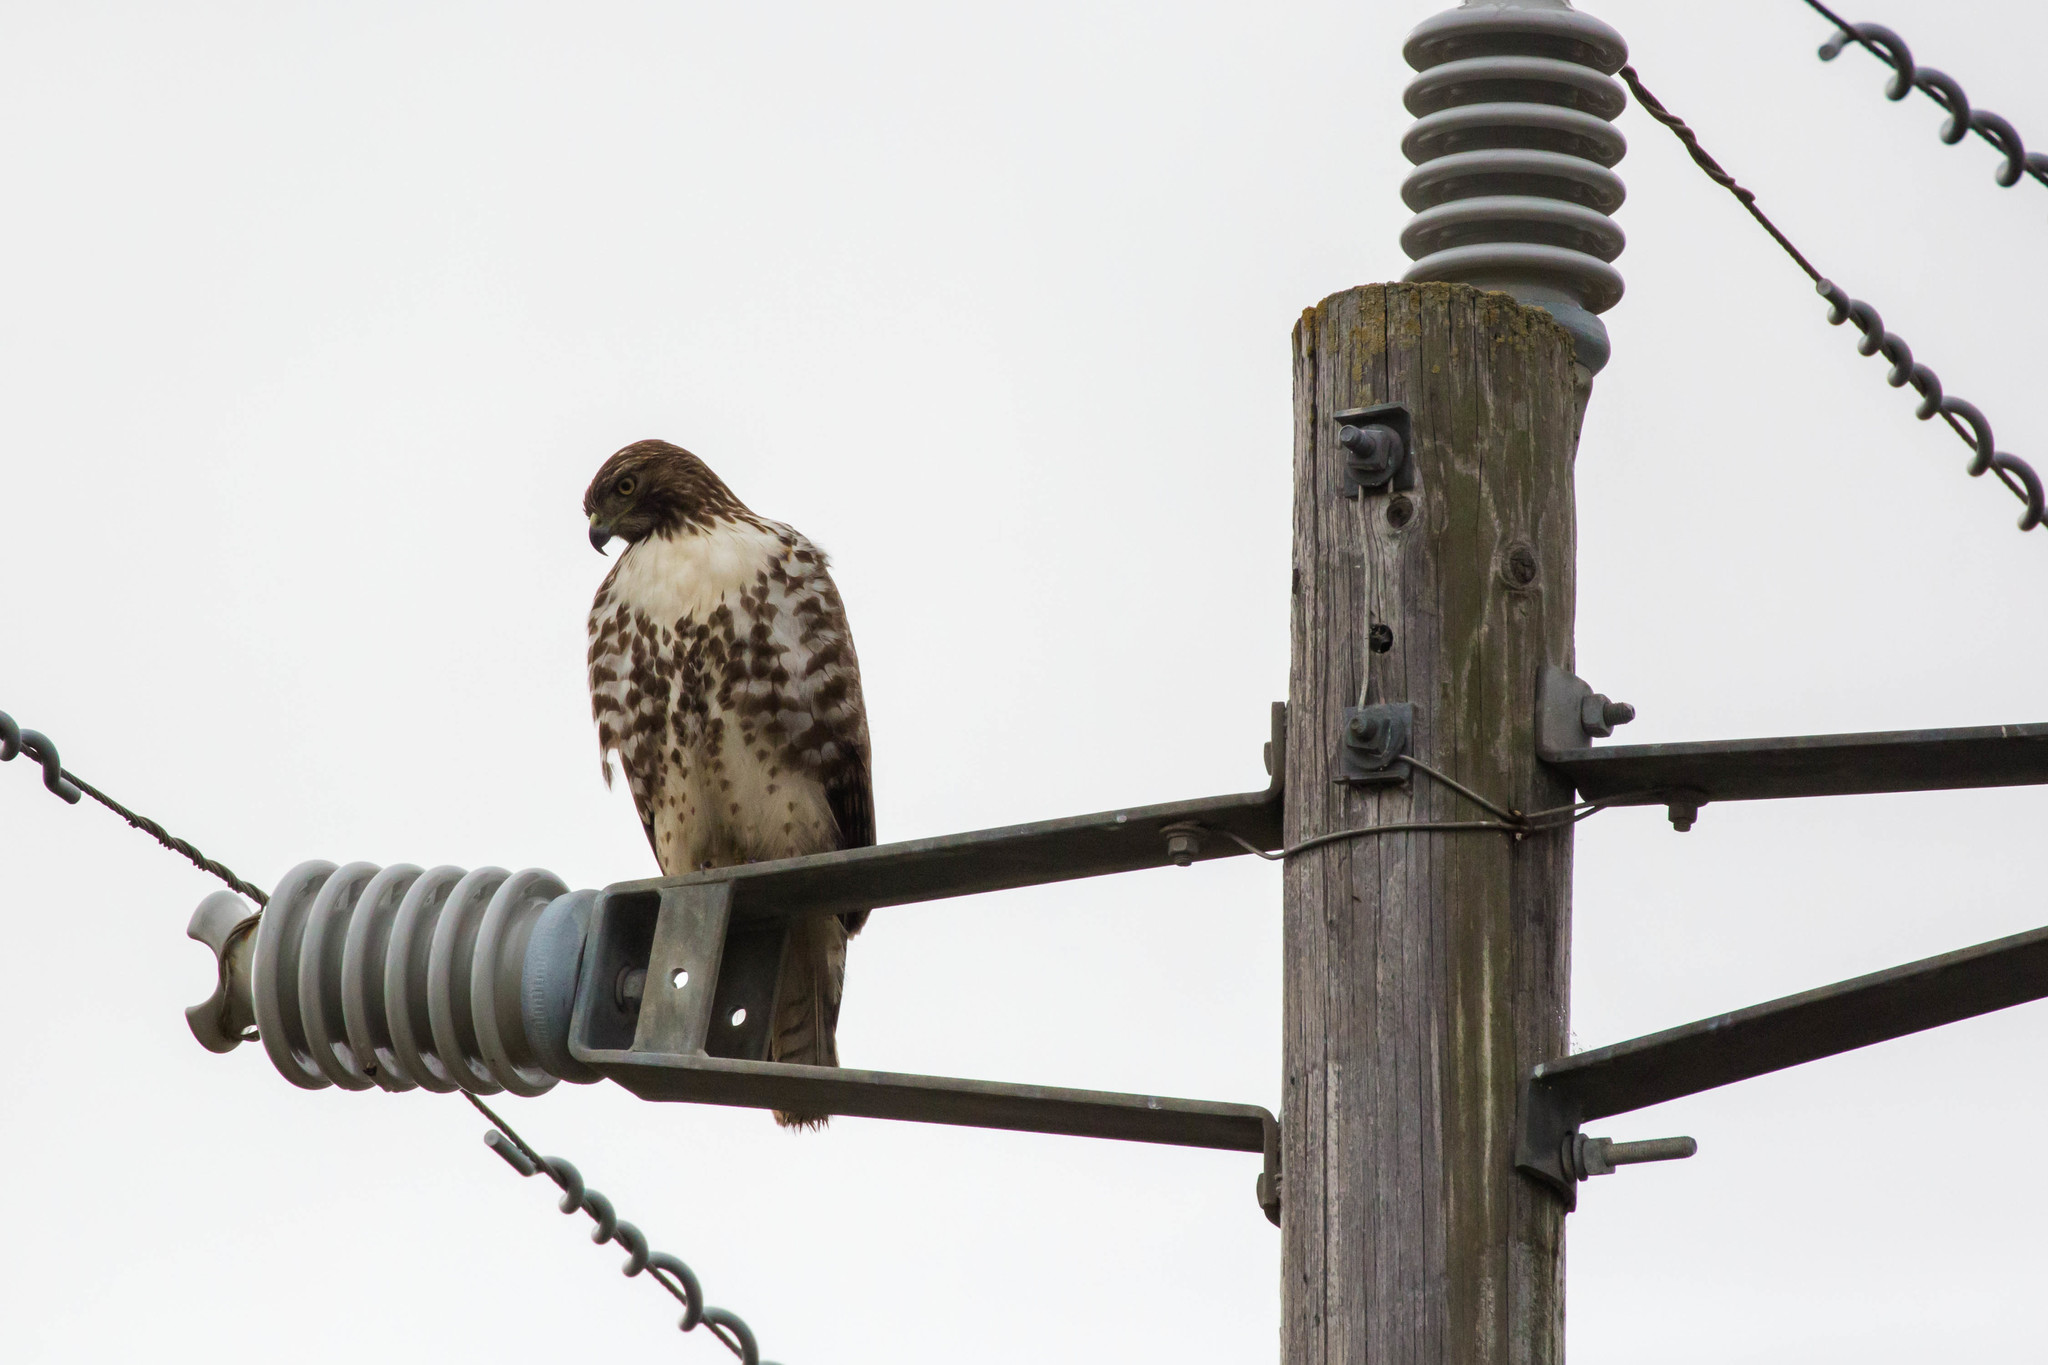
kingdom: Animalia
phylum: Chordata
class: Aves
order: Accipitriformes
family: Accipitridae
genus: Buteo
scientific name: Buteo jamaicensis
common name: Red-tailed hawk
